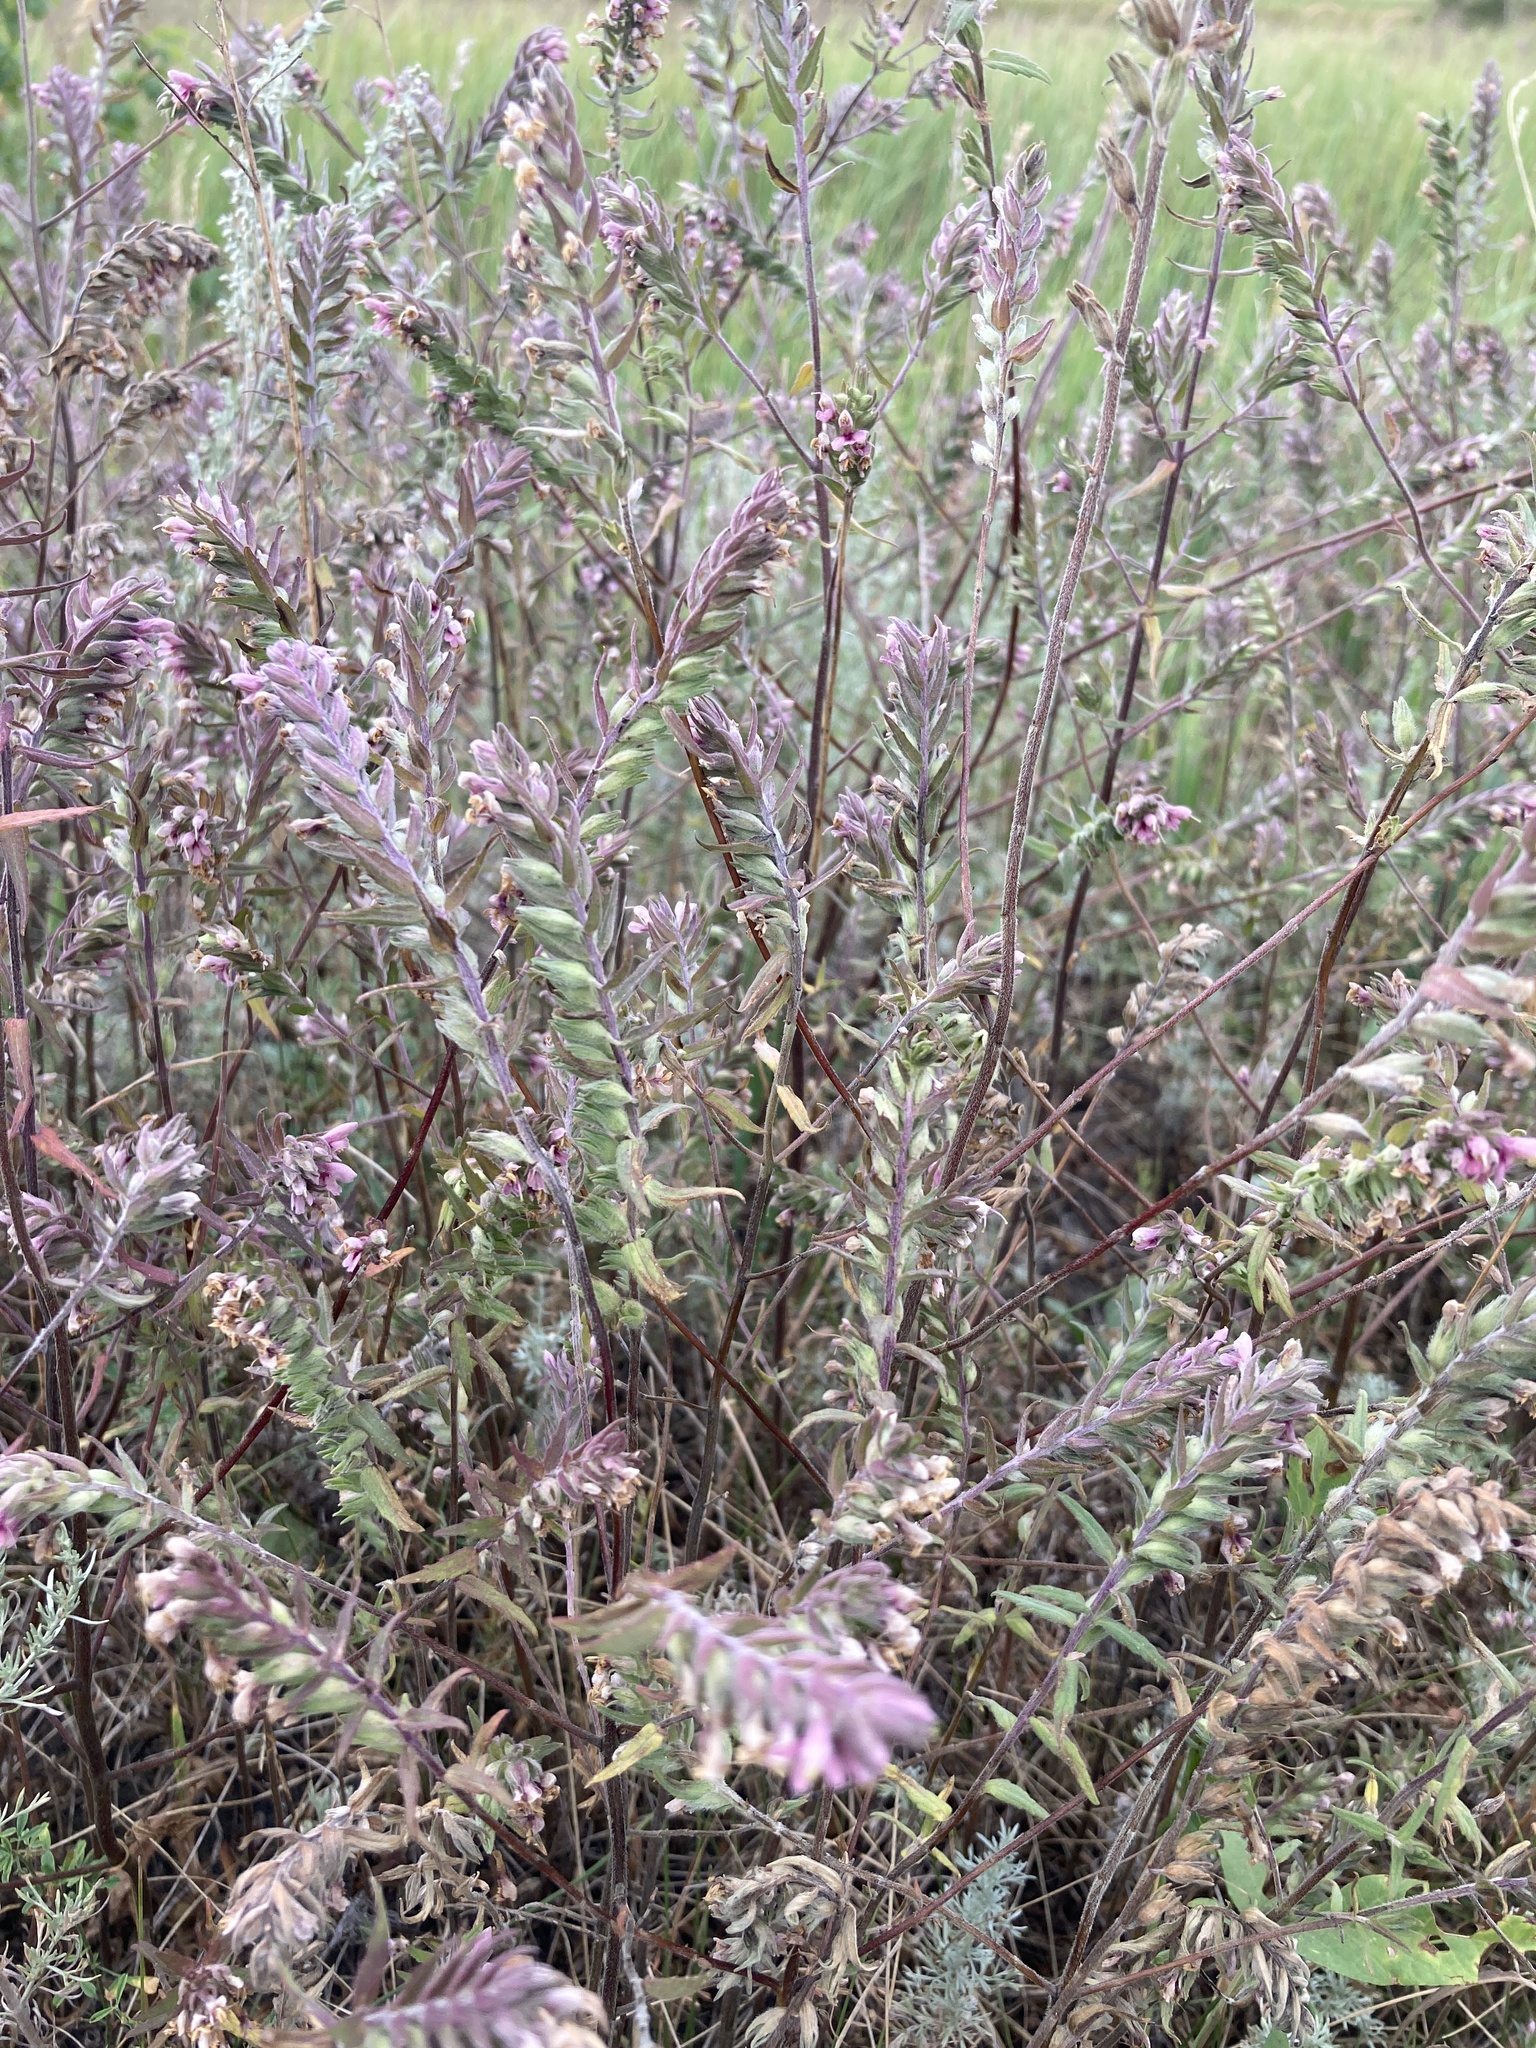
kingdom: Plantae
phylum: Tracheophyta
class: Magnoliopsida
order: Lamiales
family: Orobanchaceae
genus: Odontites
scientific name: Odontites vulgaris
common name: Broomrape
